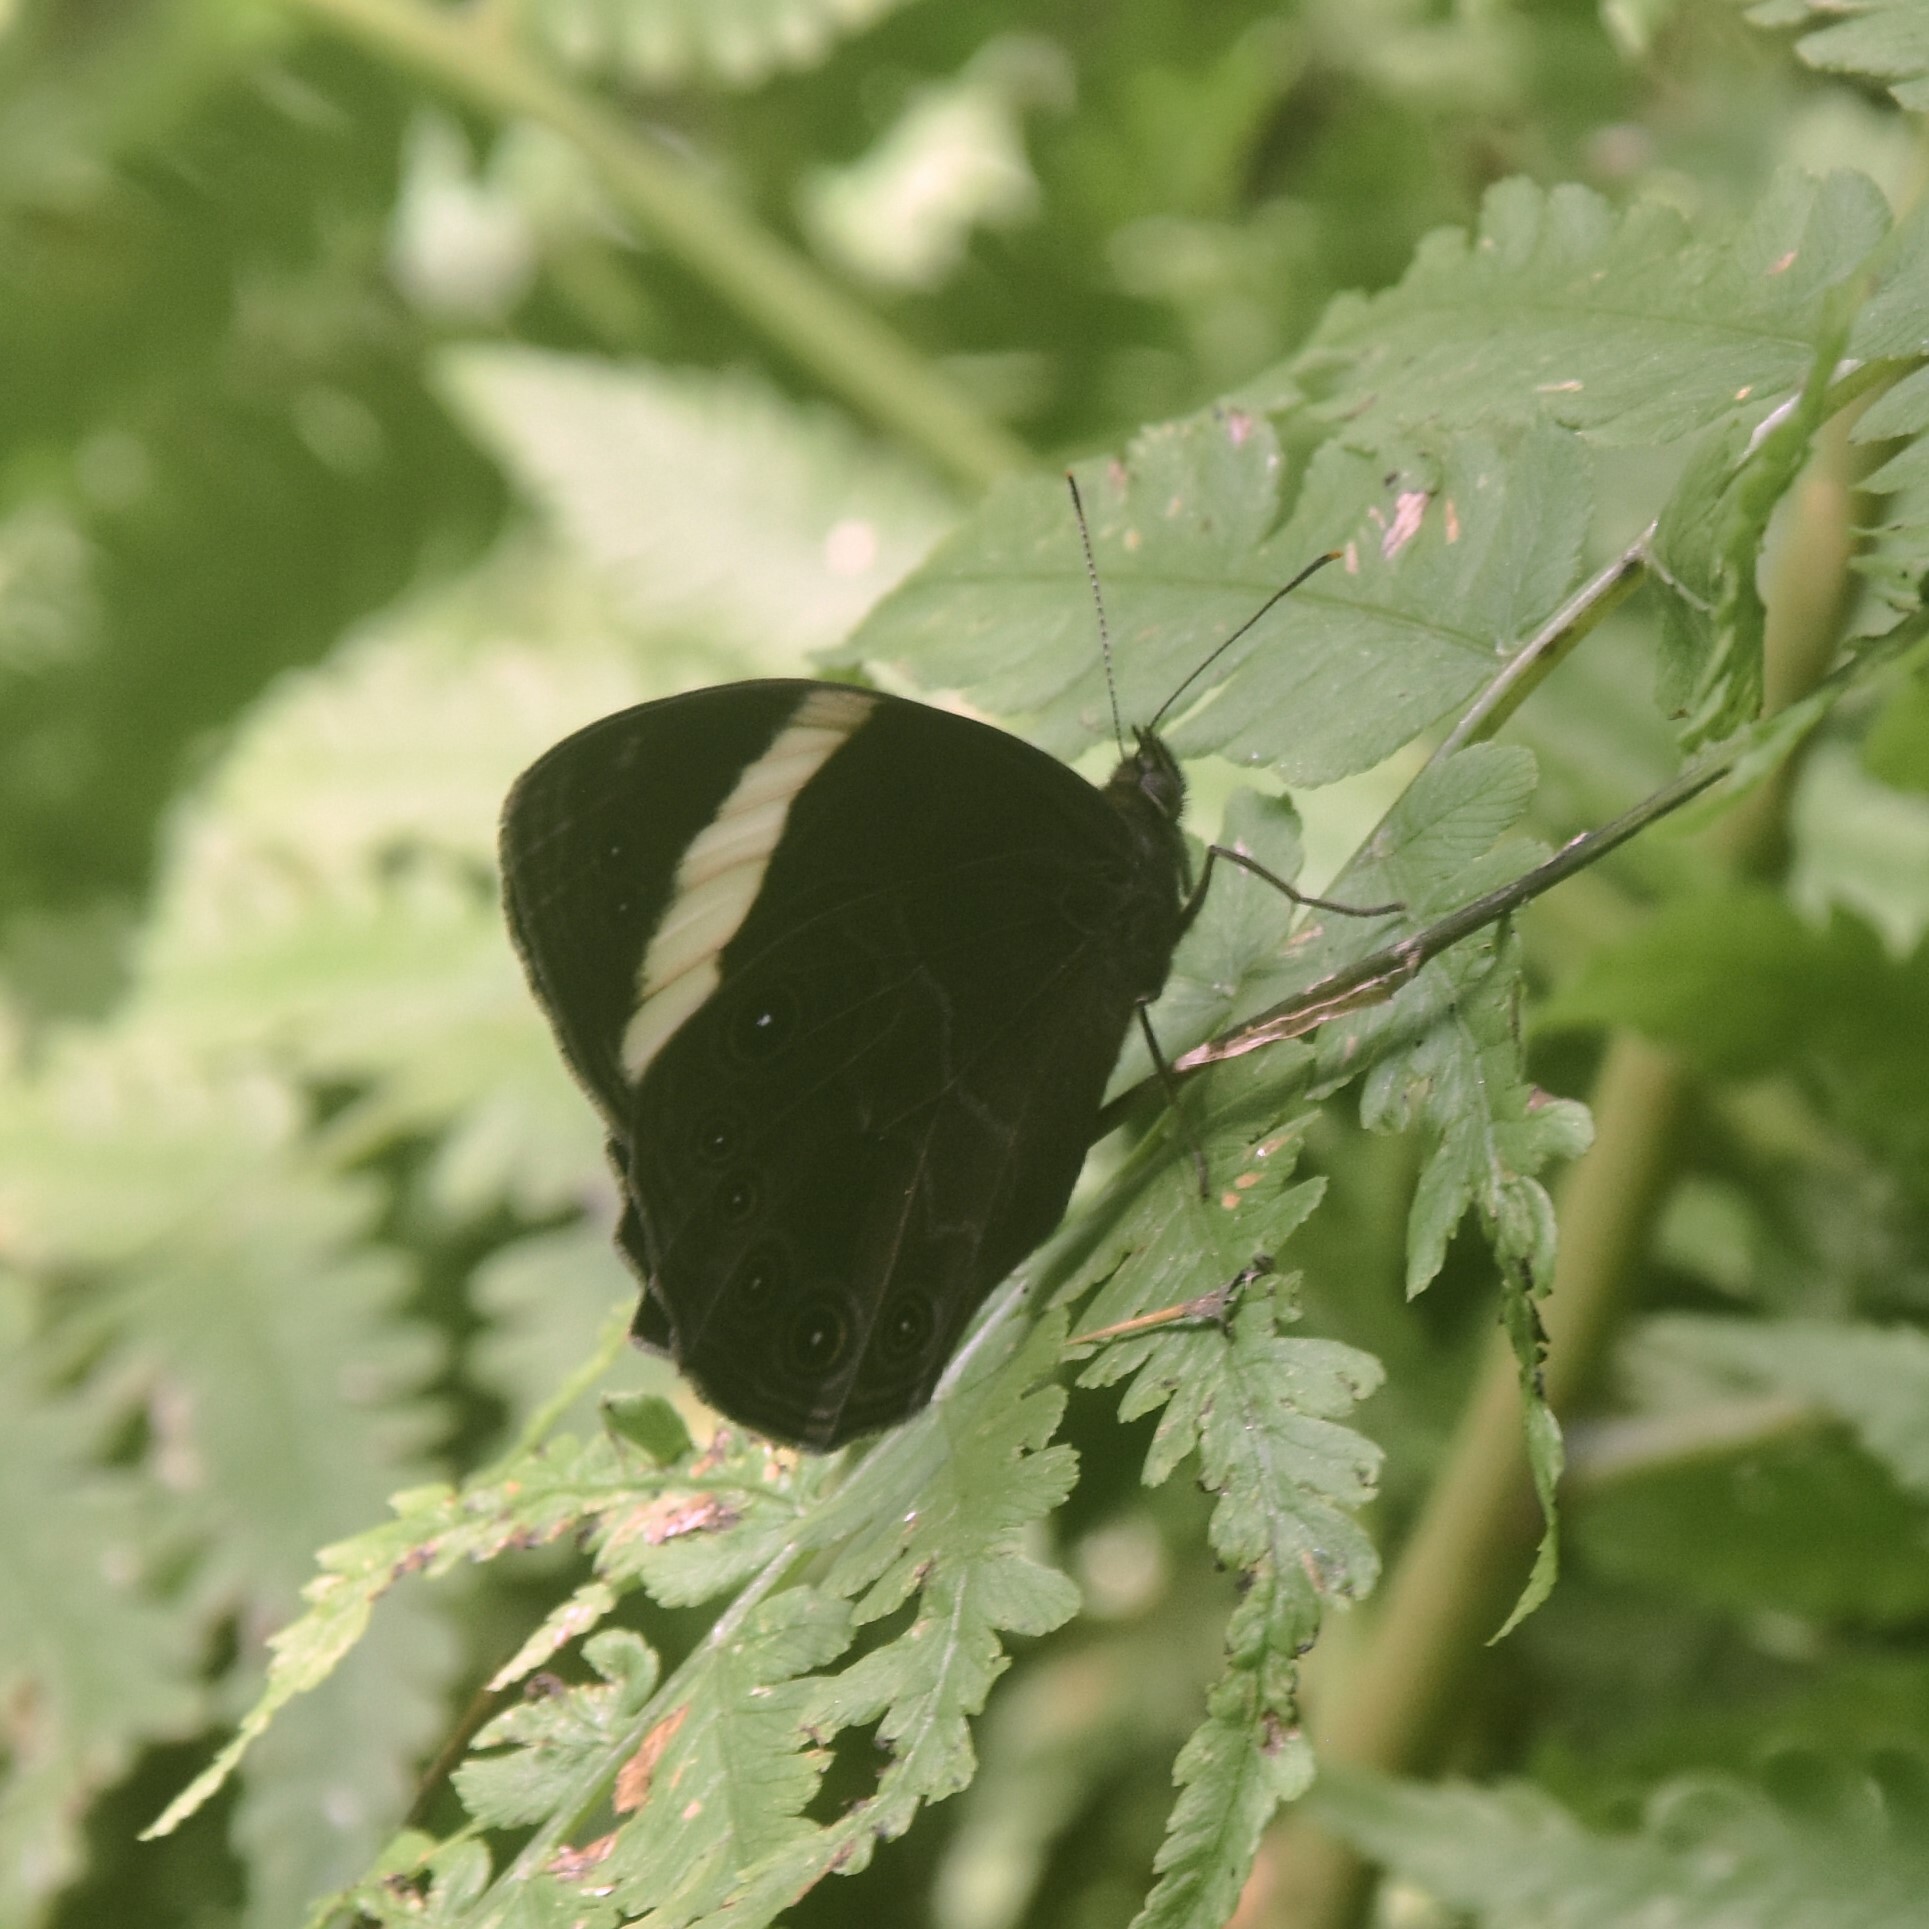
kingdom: Animalia
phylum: Arthropoda
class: Insecta
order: Lepidoptera
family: Nymphalidae
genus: Lethe
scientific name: Lethe verma
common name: Straight-banded treebrown
